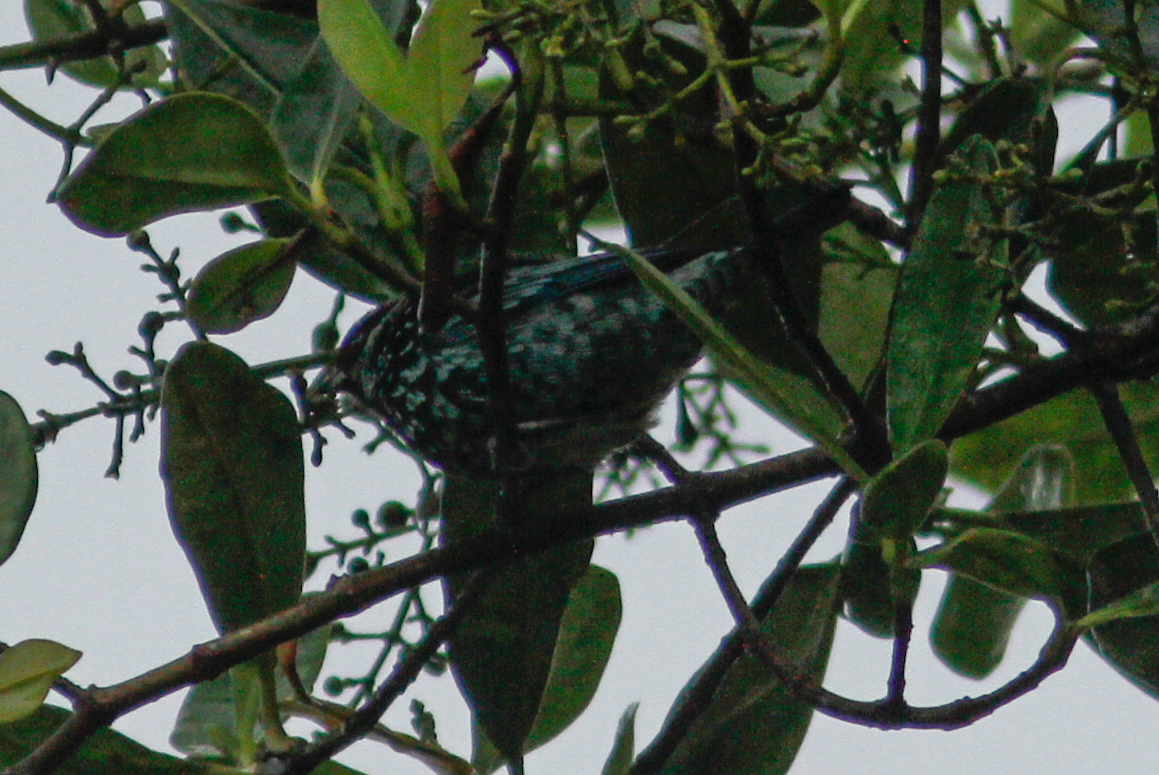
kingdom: Animalia
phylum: Chordata
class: Aves
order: Passeriformes
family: Thraupidae
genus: Tangara
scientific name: Tangara nigroviridis
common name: Beryl-spangled tanager
